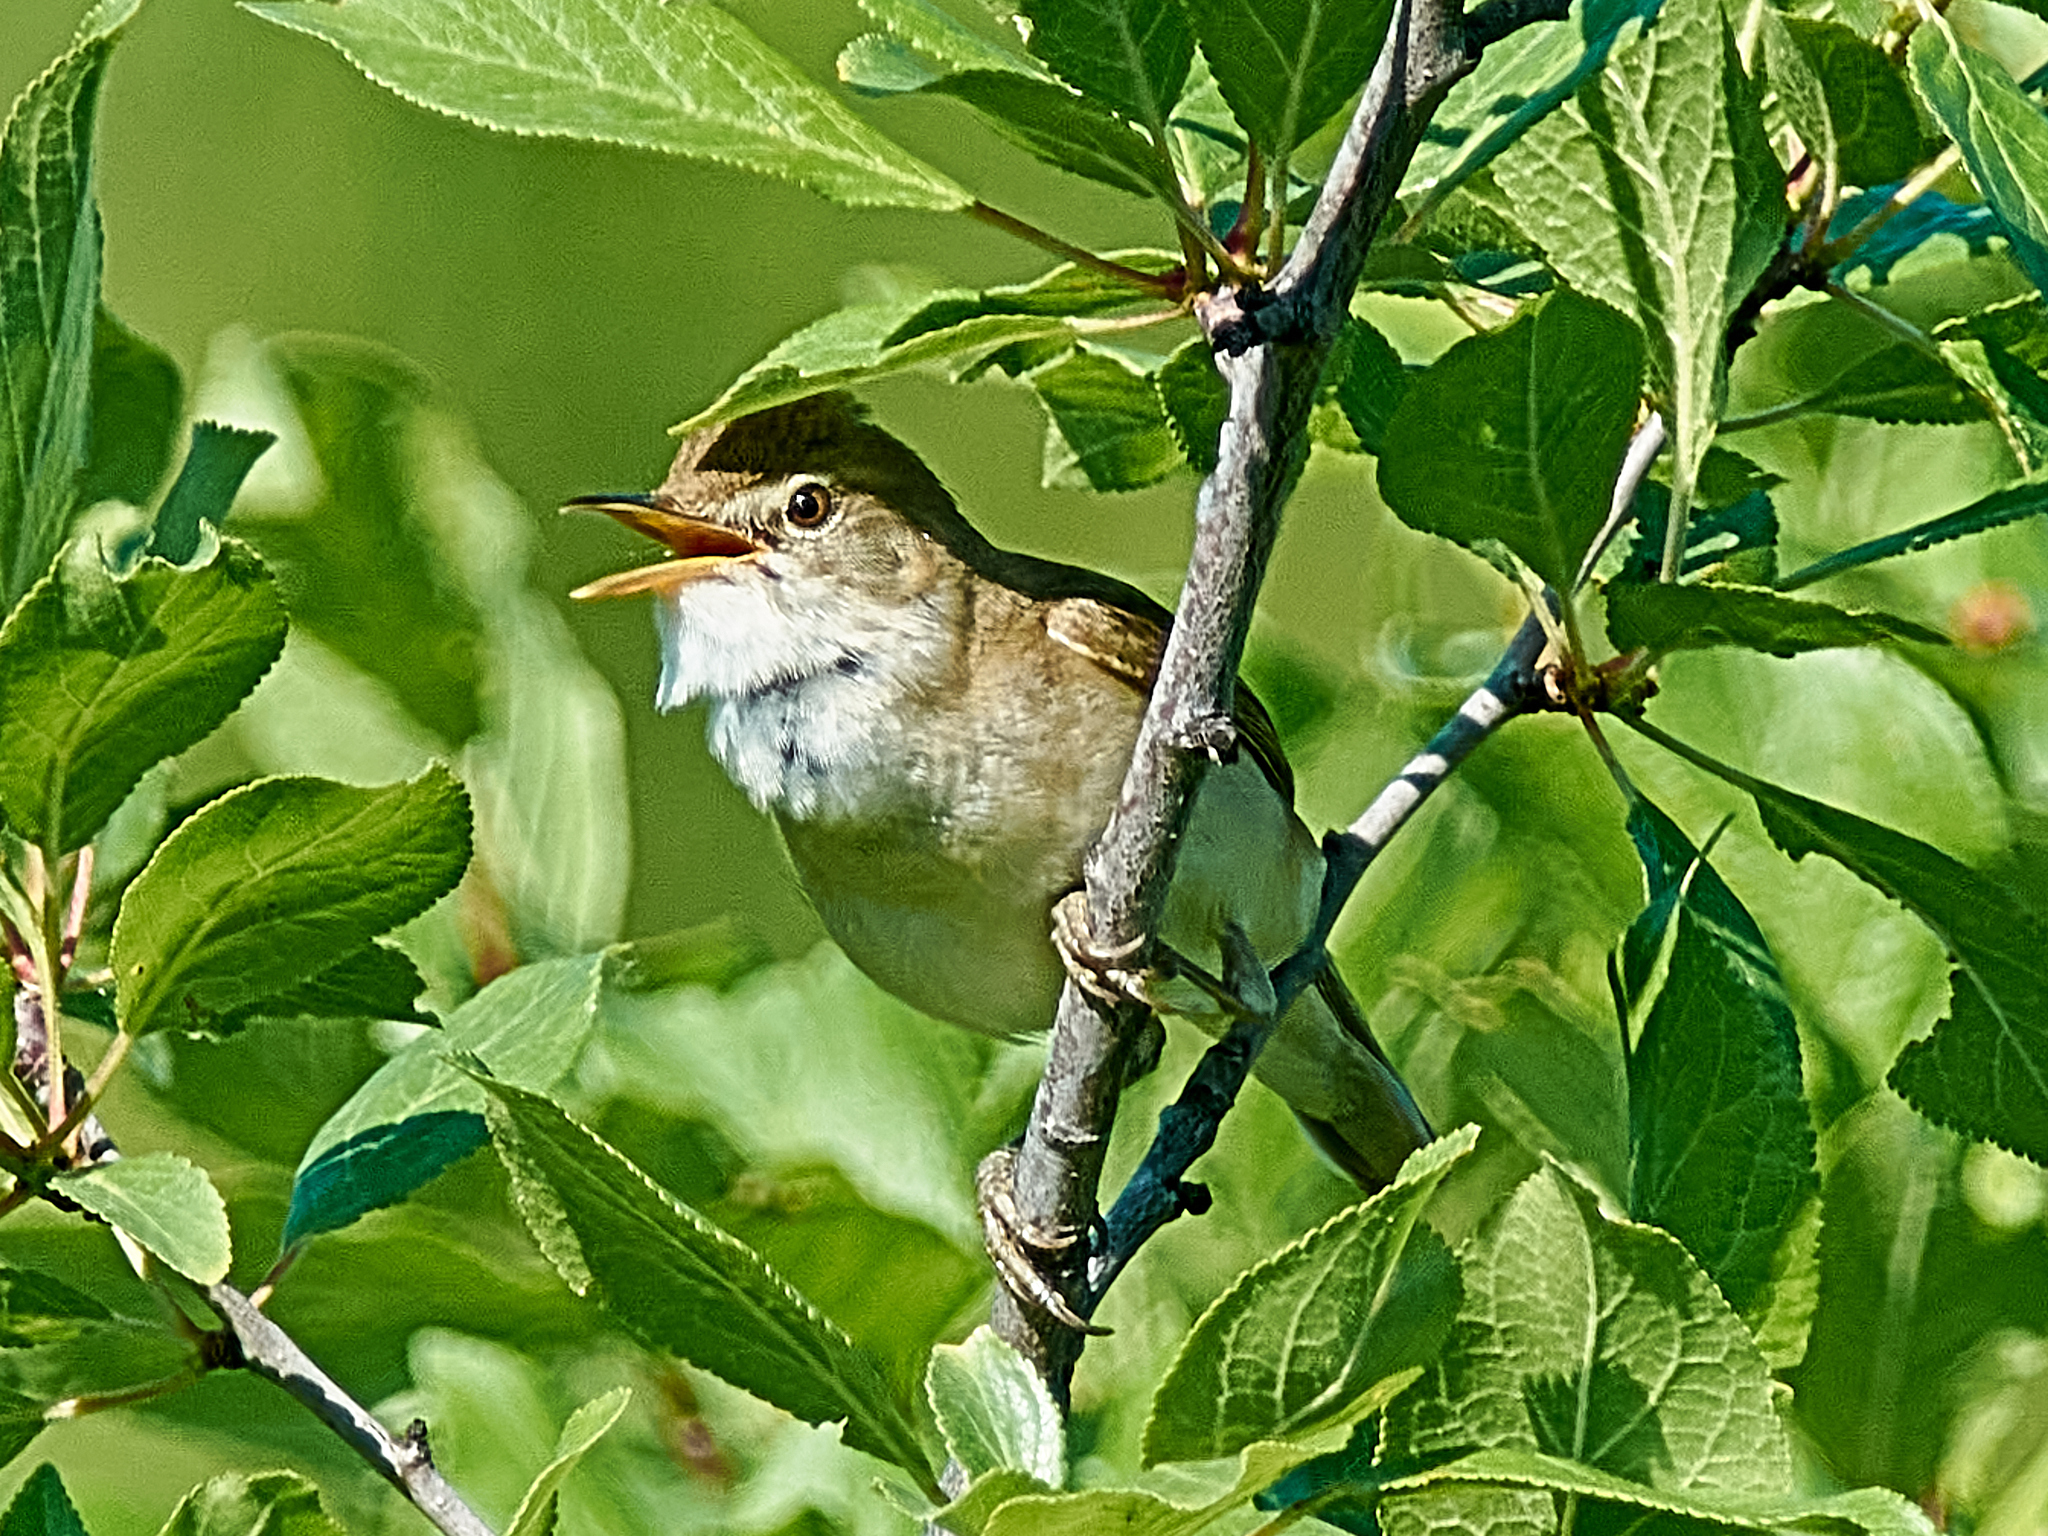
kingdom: Animalia
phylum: Chordata
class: Aves
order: Passeriformes
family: Acrocephalidae
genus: Acrocephalus
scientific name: Acrocephalus dumetorum
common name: Blyth's reed warbler
